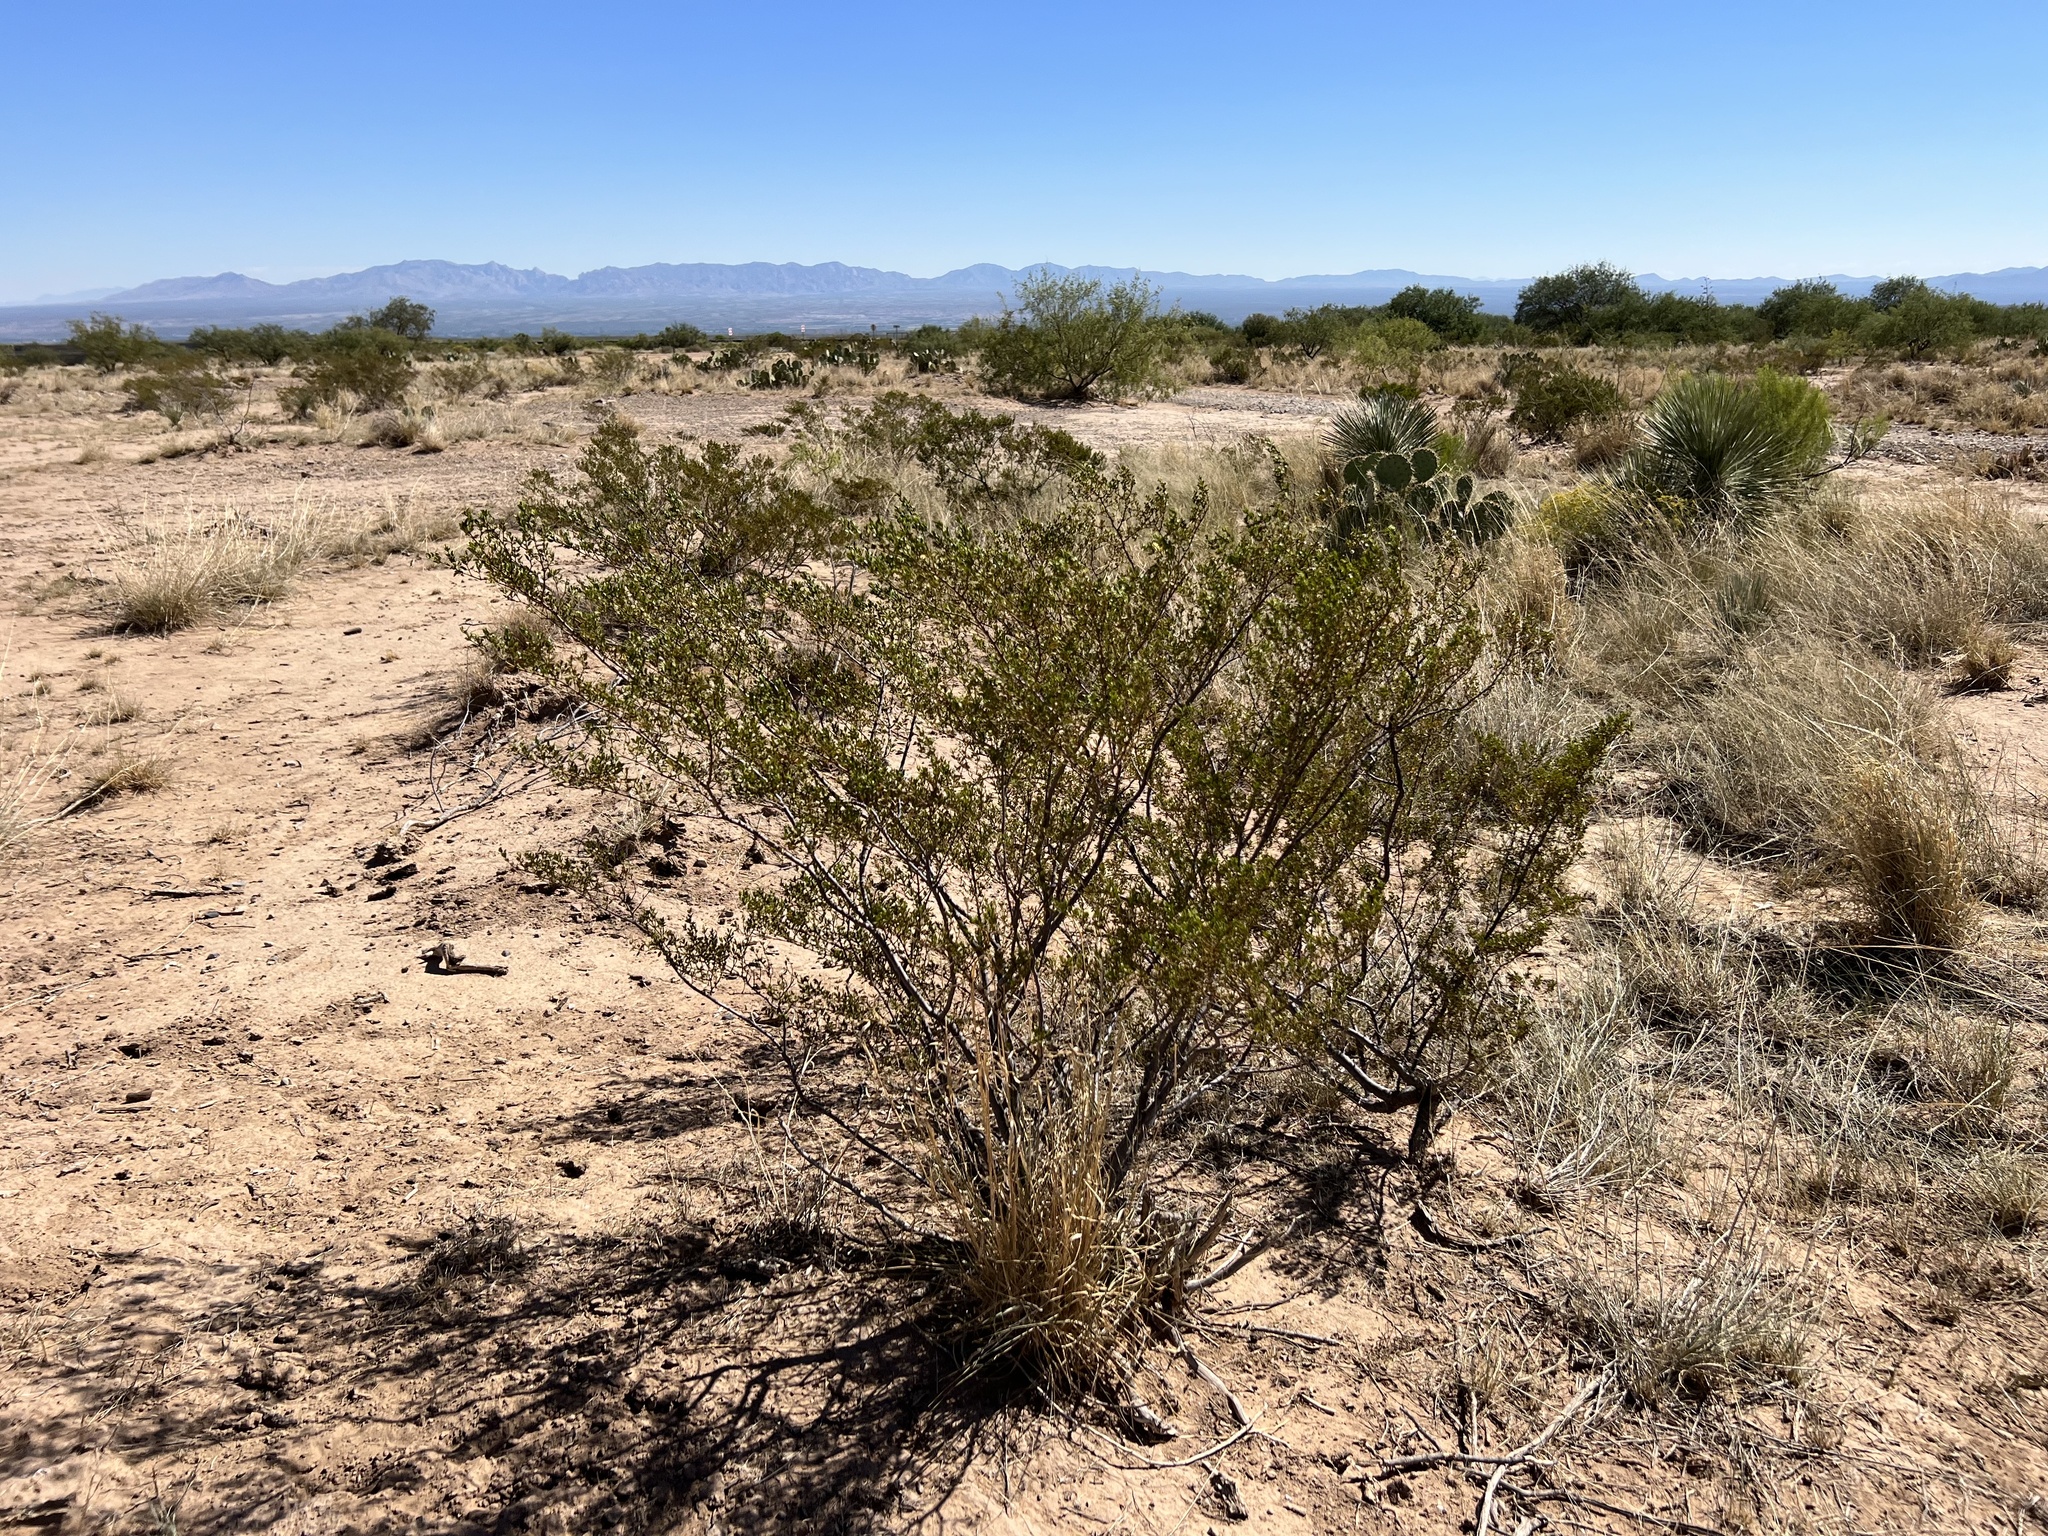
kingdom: Plantae
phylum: Tracheophyta
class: Magnoliopsida
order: Zygophyllales
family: Zygophyllaceae
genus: Larrea
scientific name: Larrea tridentata
